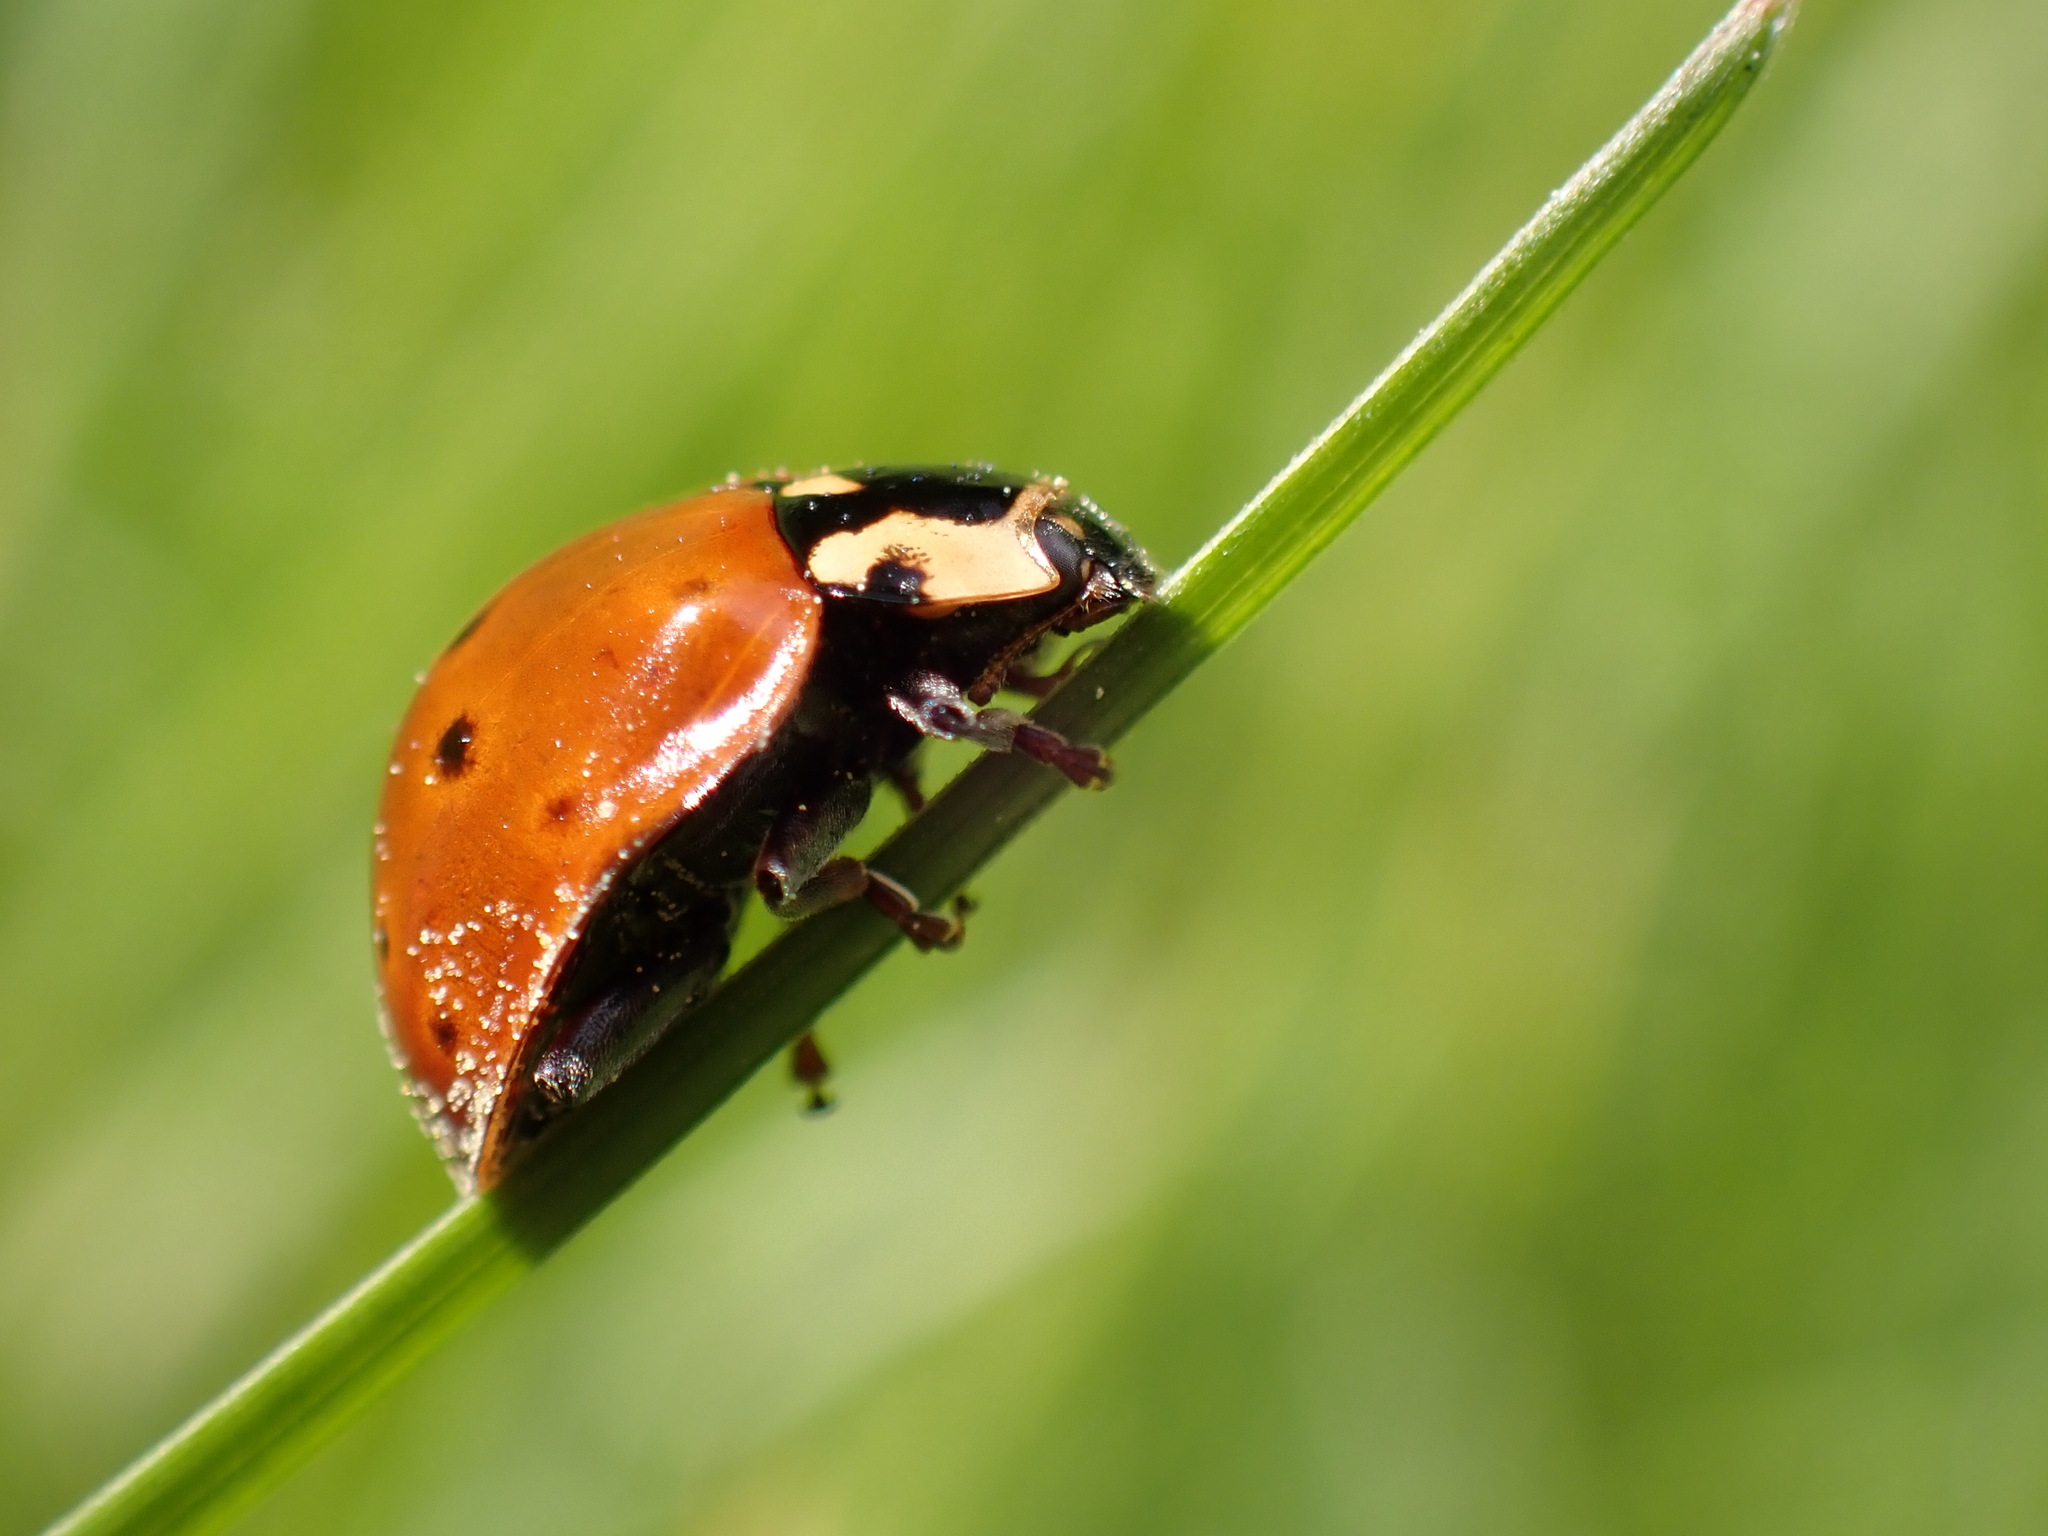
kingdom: Animalia
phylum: Arthropoda
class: Insecta
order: Coleoptera
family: Coccinellidae
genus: Anatis
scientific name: Anatis rathvoni
